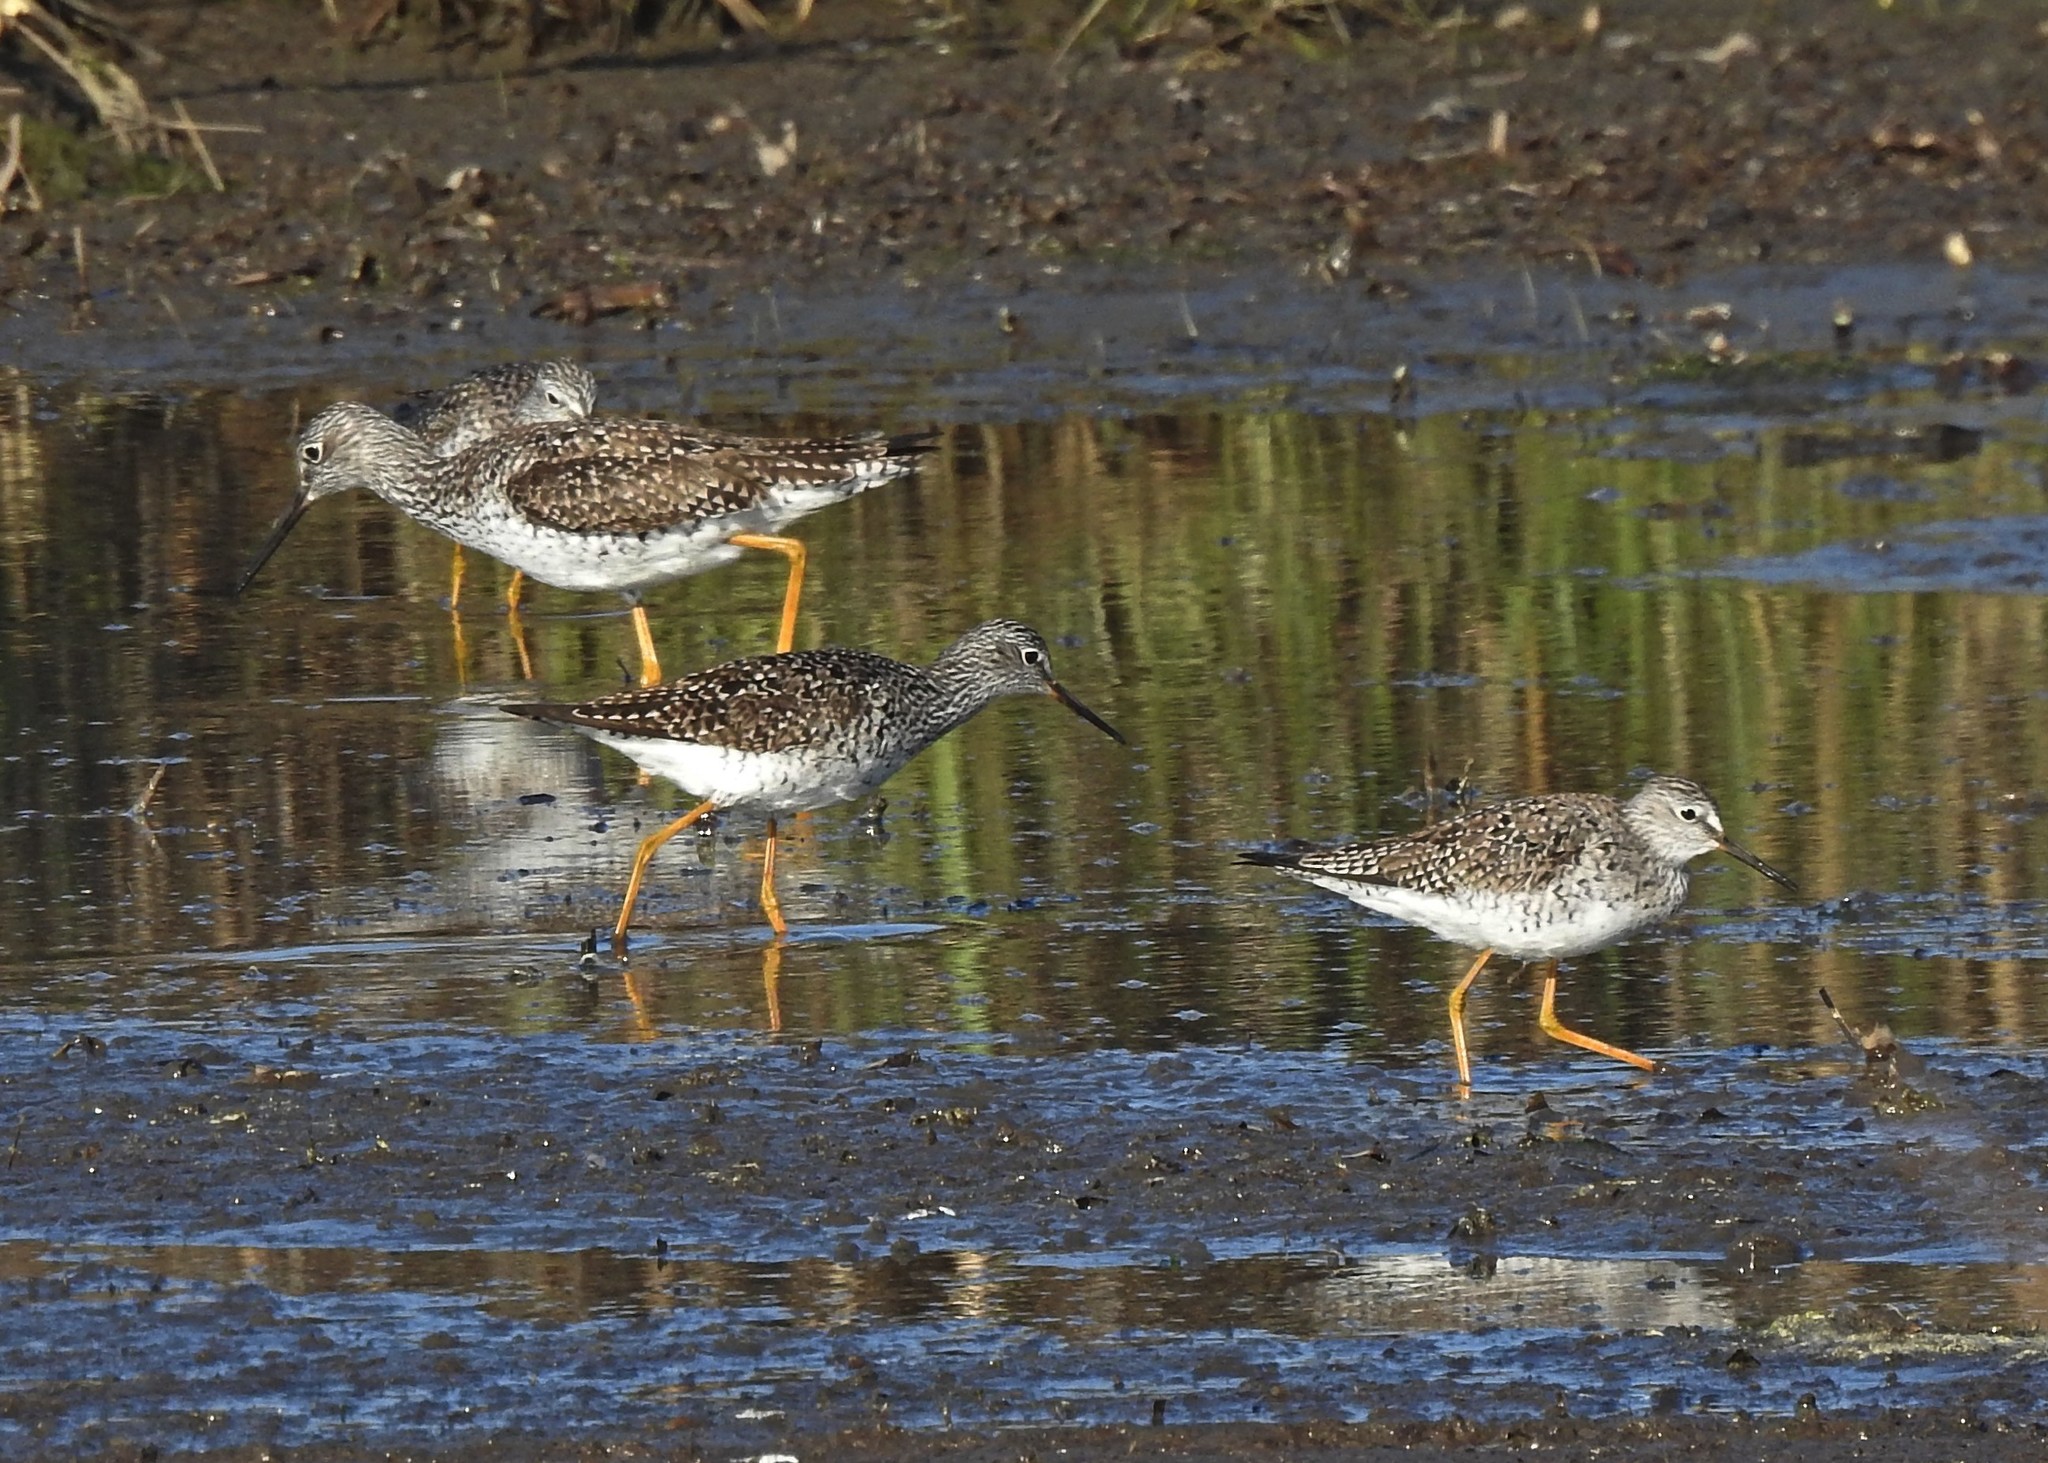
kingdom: Animalia
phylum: Chordata
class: Aves
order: Charadriiformes
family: Scolopacidae
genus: Tringa
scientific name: Tringa melanoleuca
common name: Greater yellowlegs
